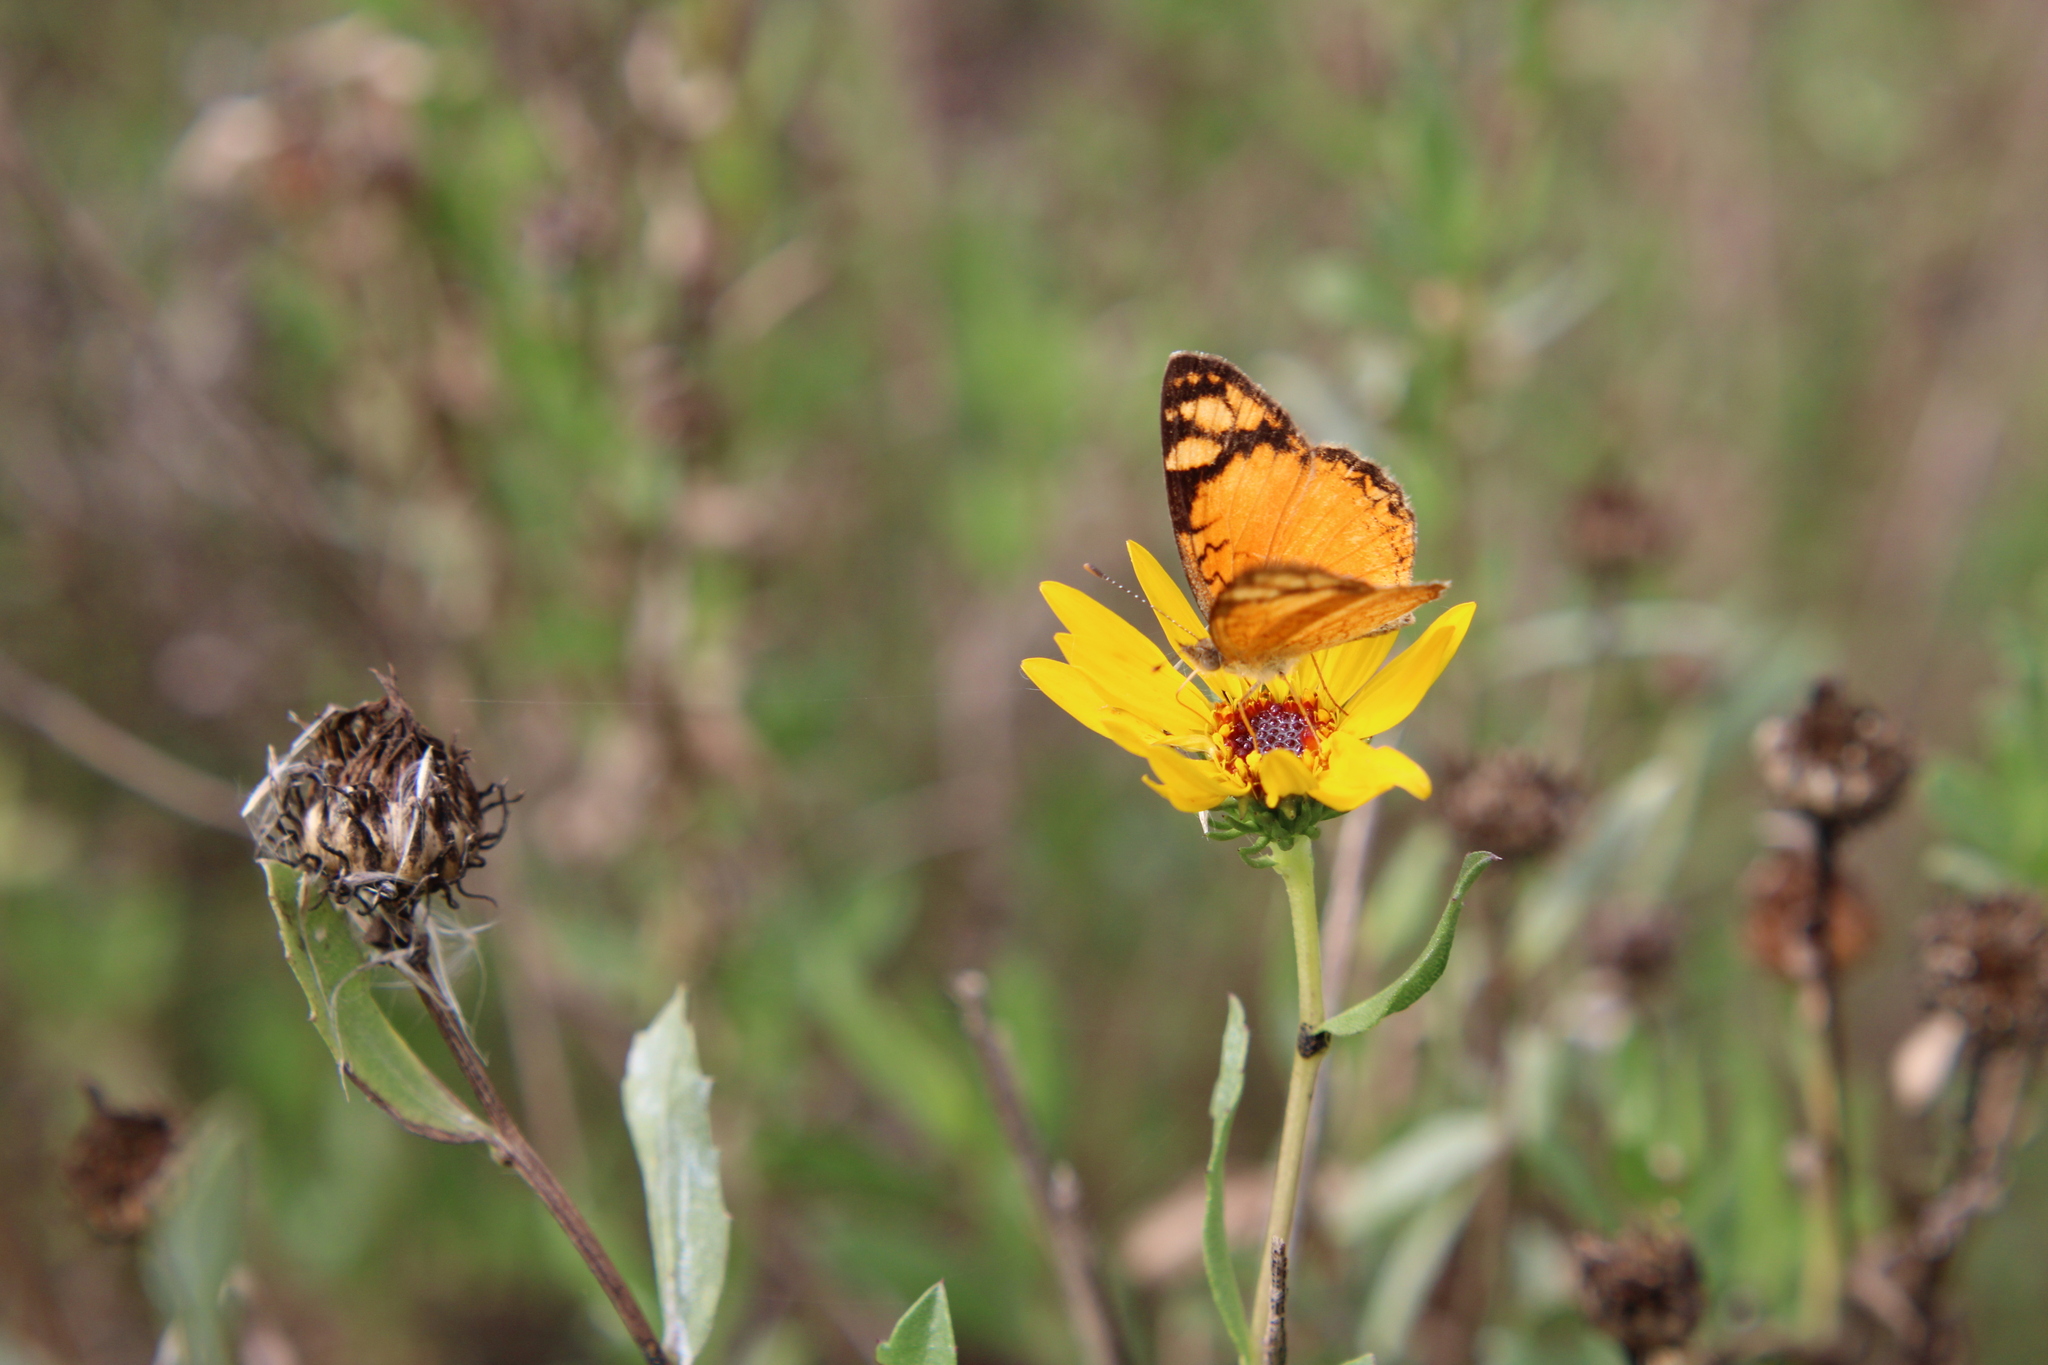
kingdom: Animalia
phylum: Arthropoda
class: Insecta
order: Lepidoptera
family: Nymphalidae
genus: Tegosa
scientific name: Tegosa orobia
